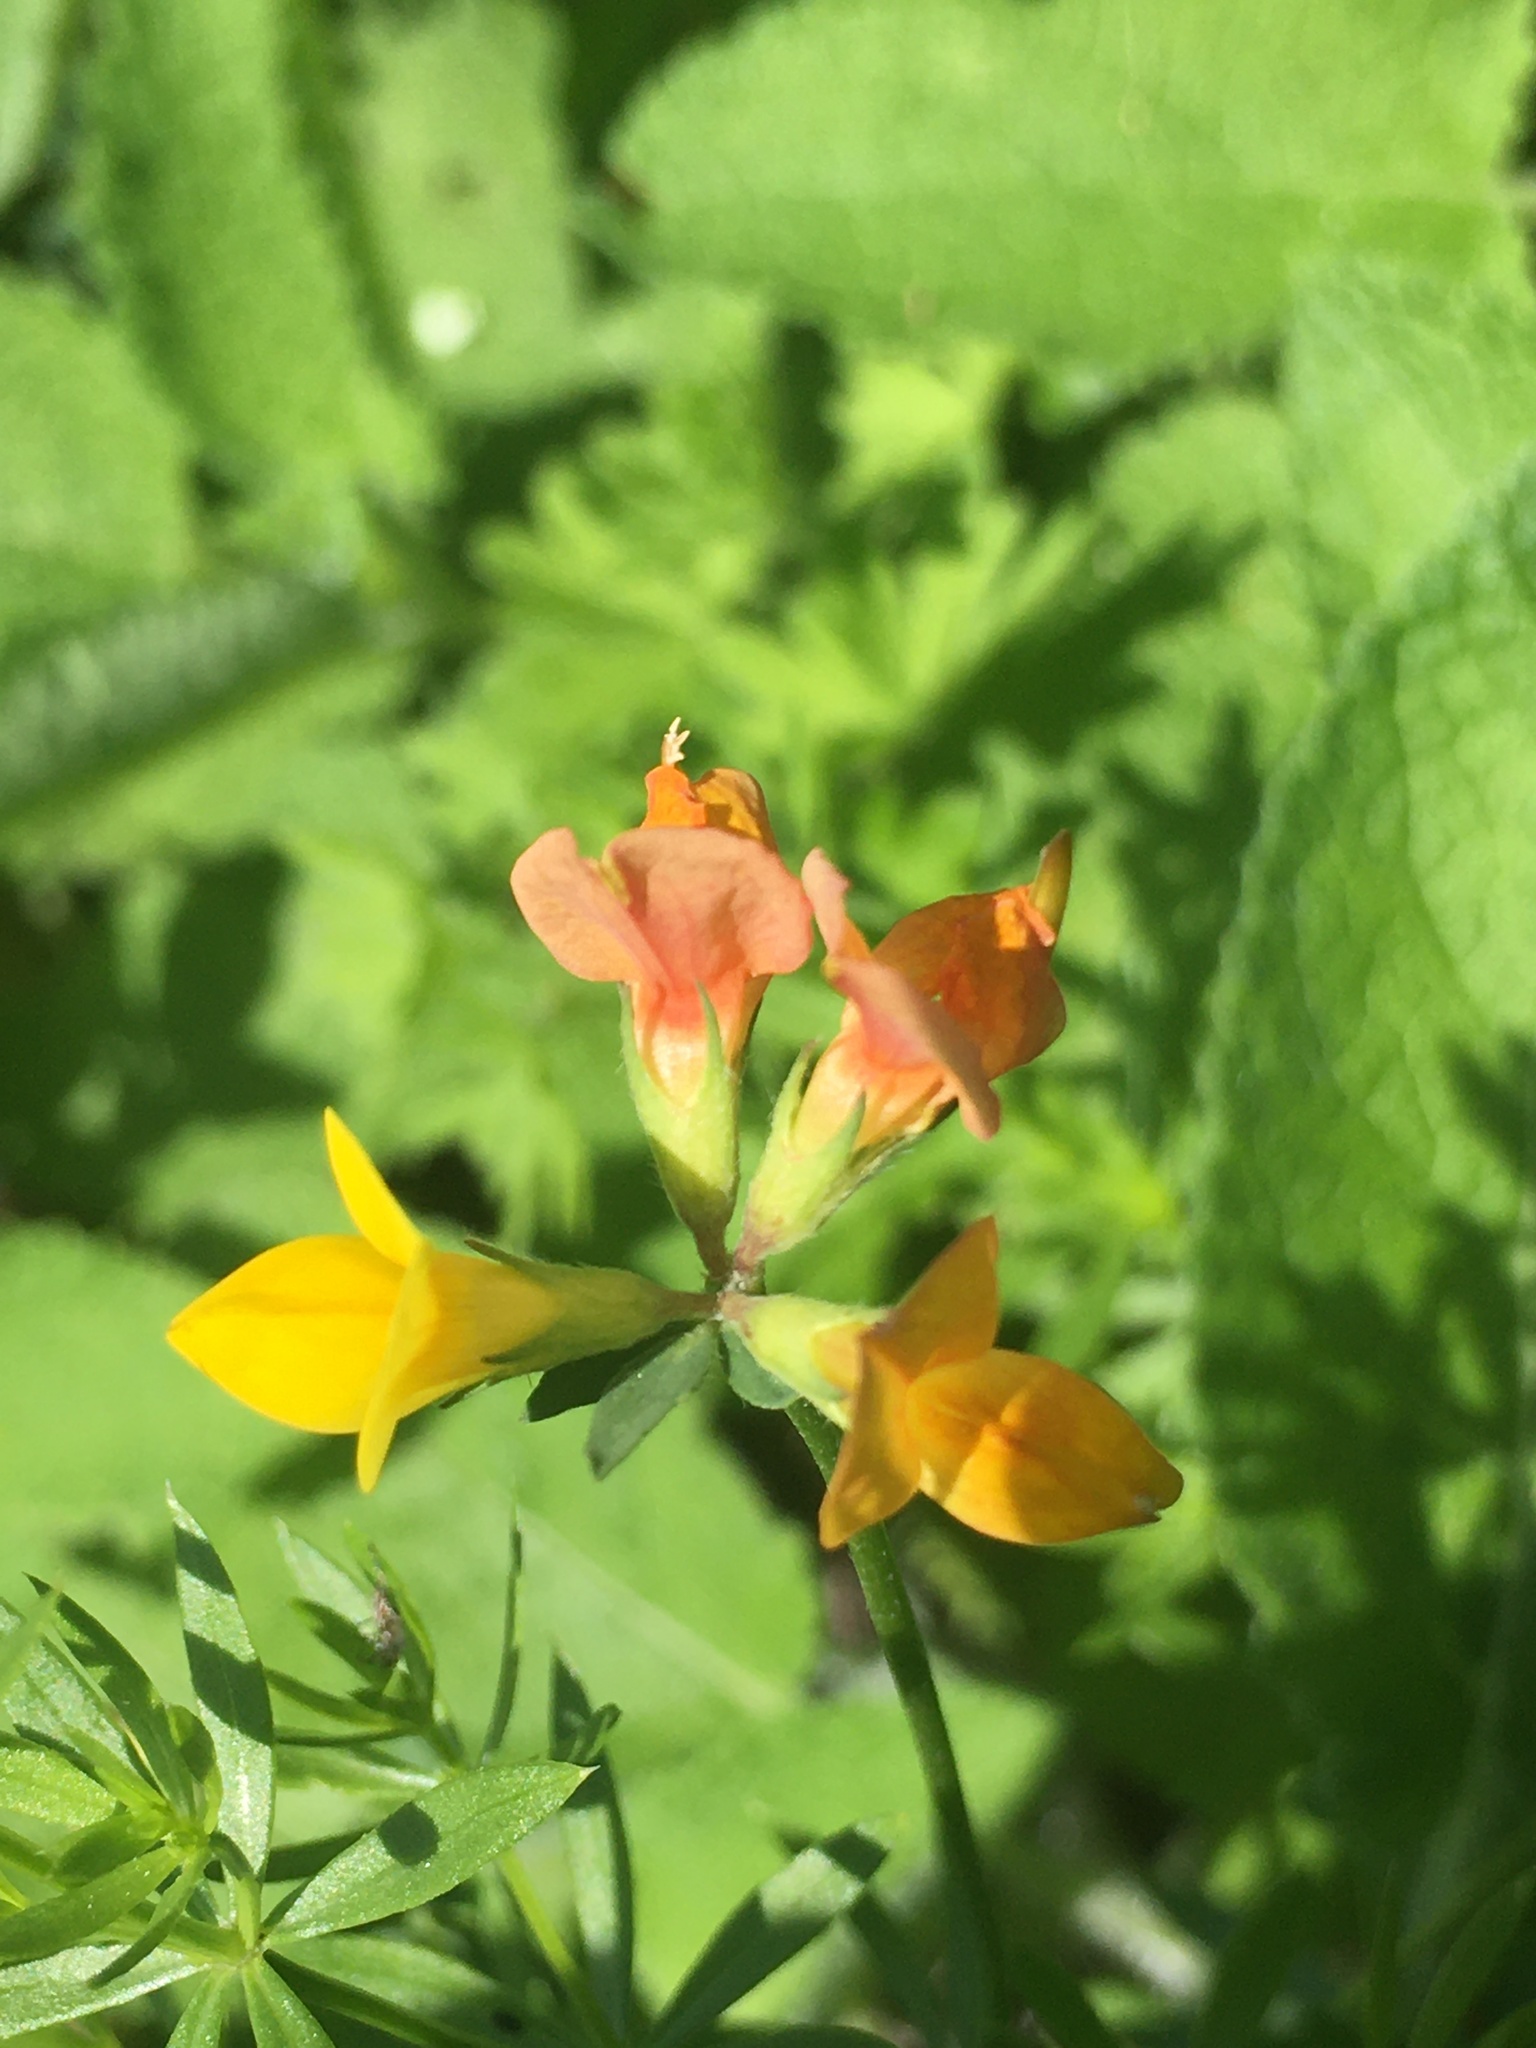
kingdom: Plantae
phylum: Tracheophyta
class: Magnoliopsida
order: Fabales
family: Fabaceae
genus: Lotus
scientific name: Lotus corniculatus
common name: Common bird's-foot-trefoil
